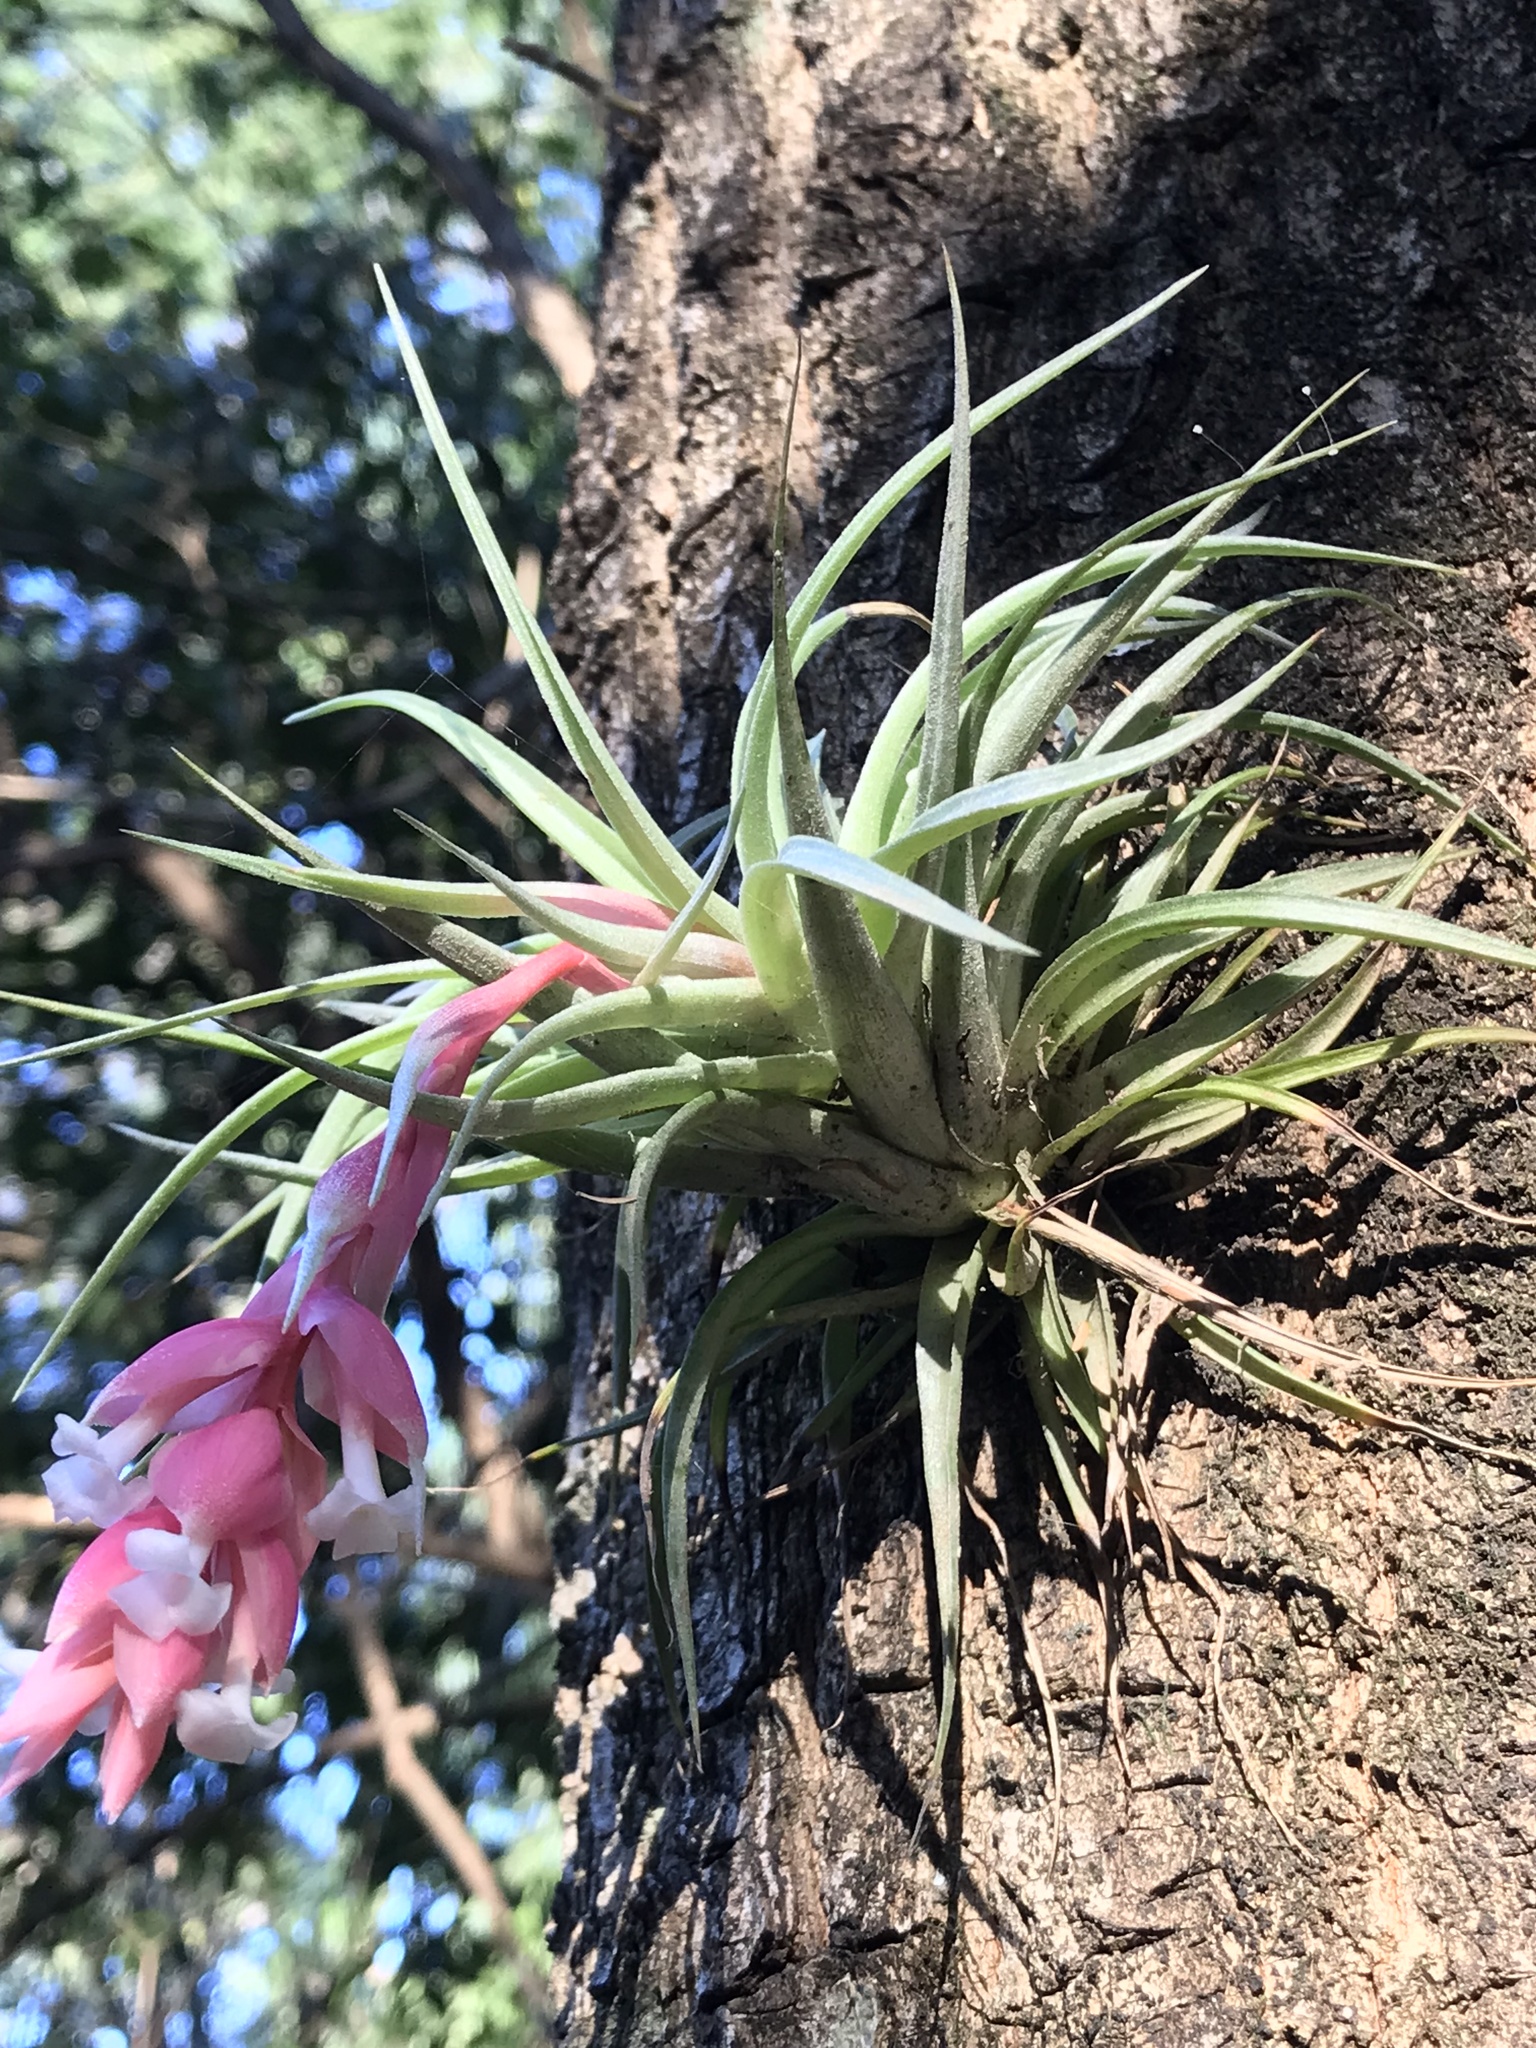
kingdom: Plantae
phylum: Tracheophyta
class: Liliopsida
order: Poales
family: Bromeliaceae
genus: Tillandsia
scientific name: Tillandsia recurvifolia
